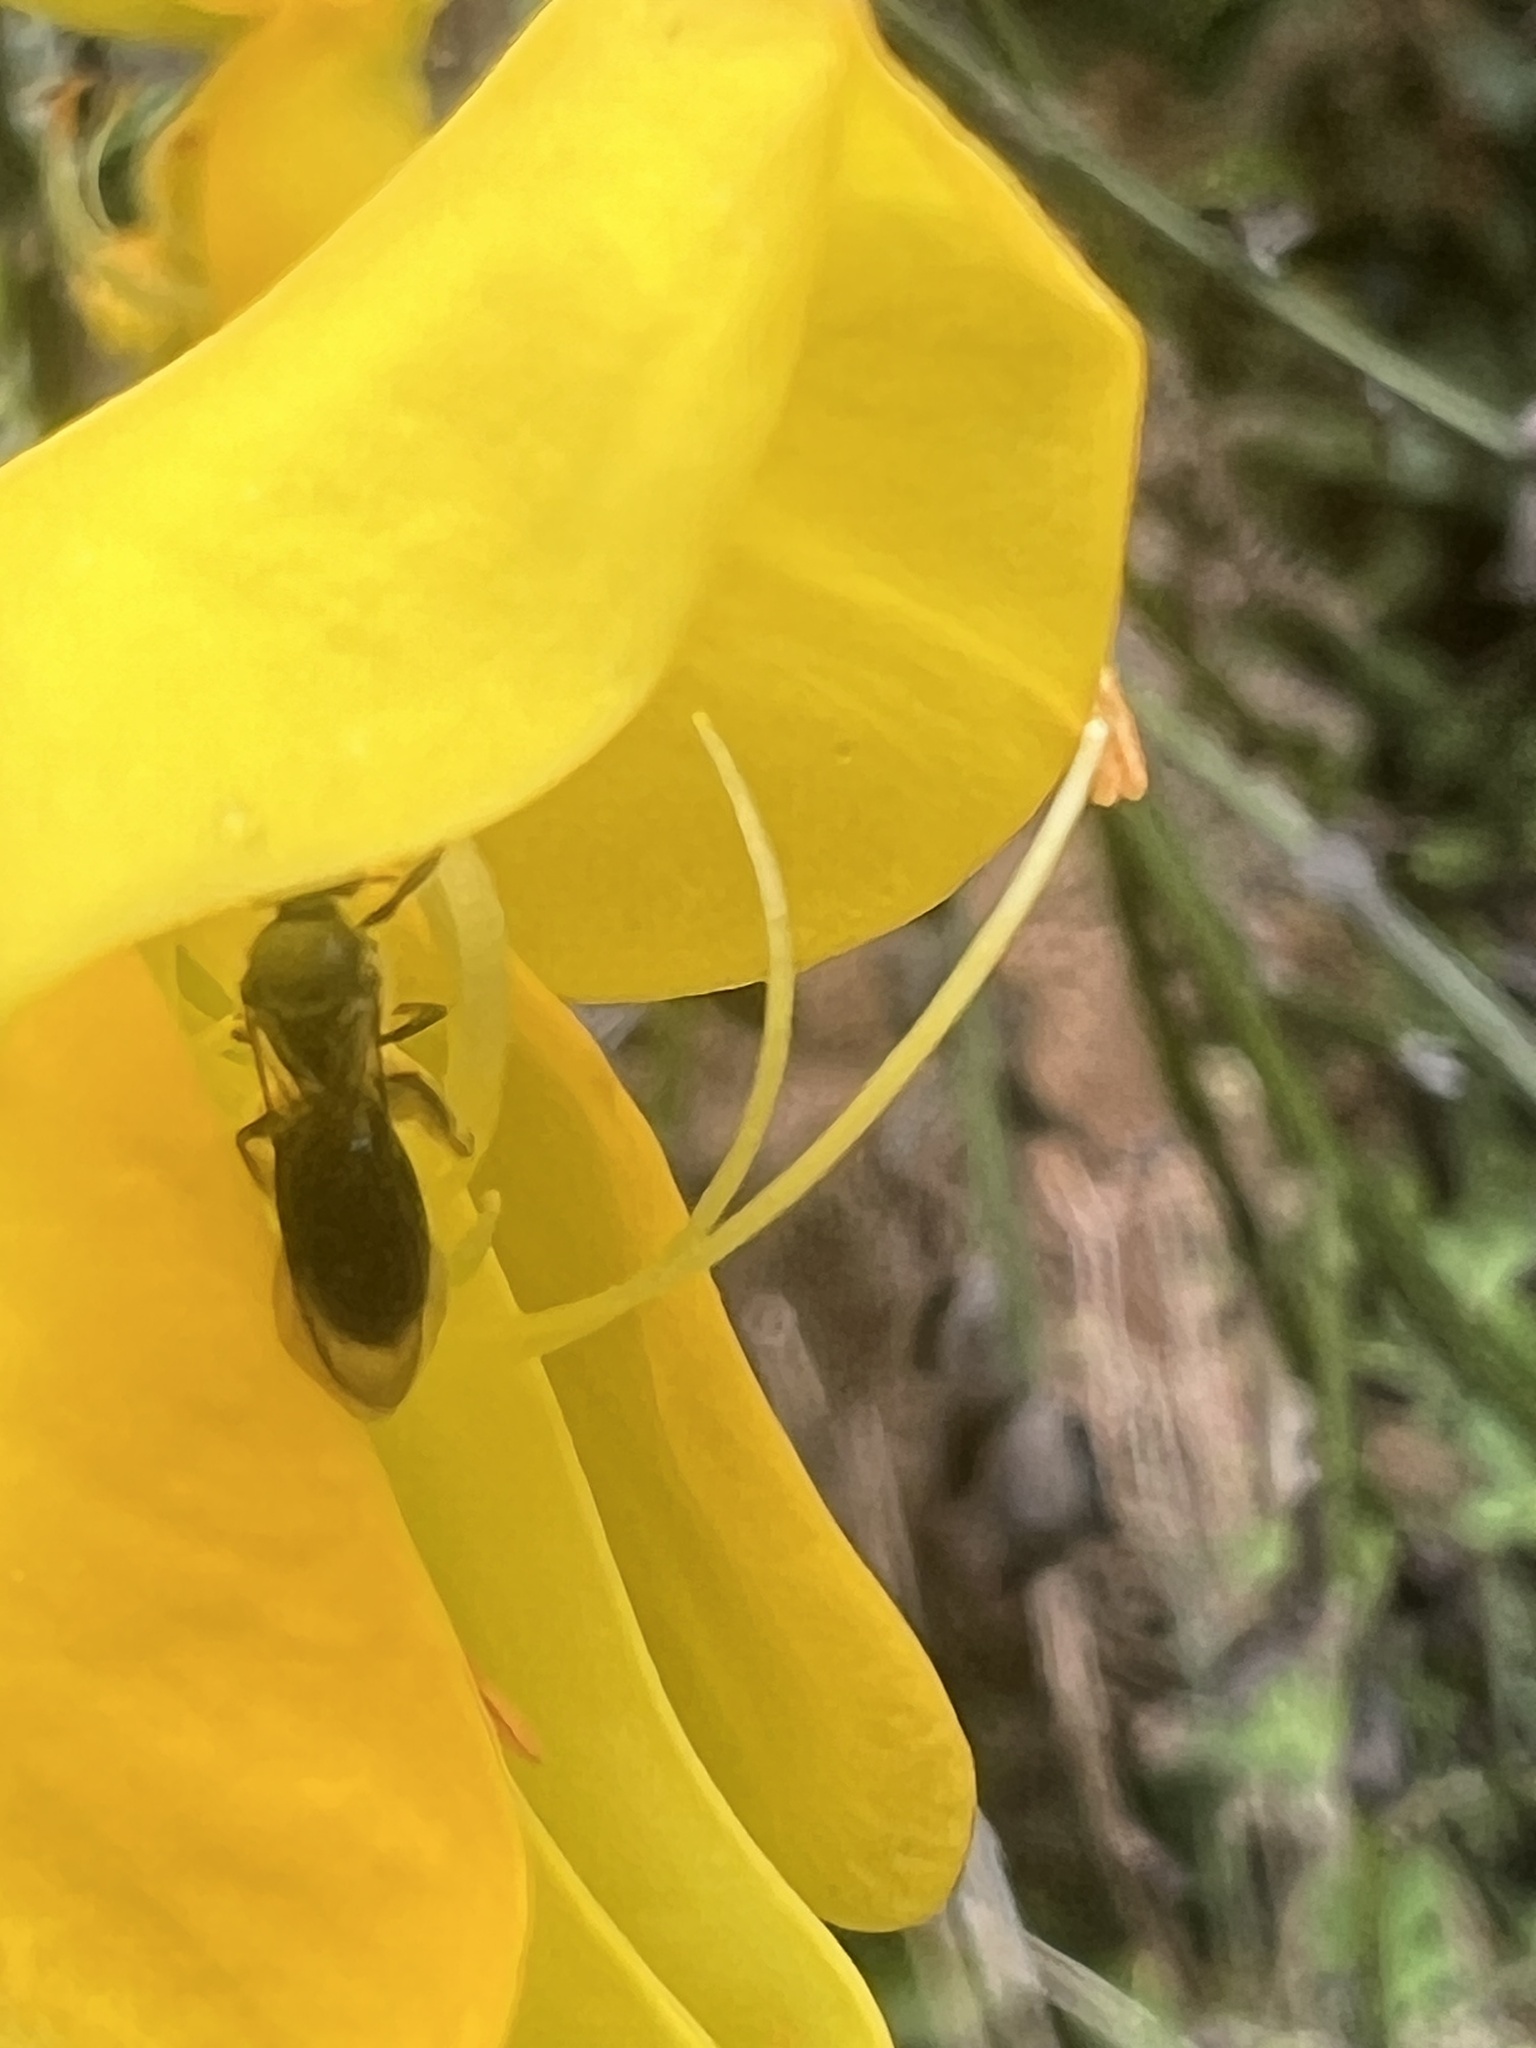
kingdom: Animalia
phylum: Arthropoda
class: Insecta
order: Hymenoptera
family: Halictidae
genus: Lasioglossum
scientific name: Lasioglossum sordidum
